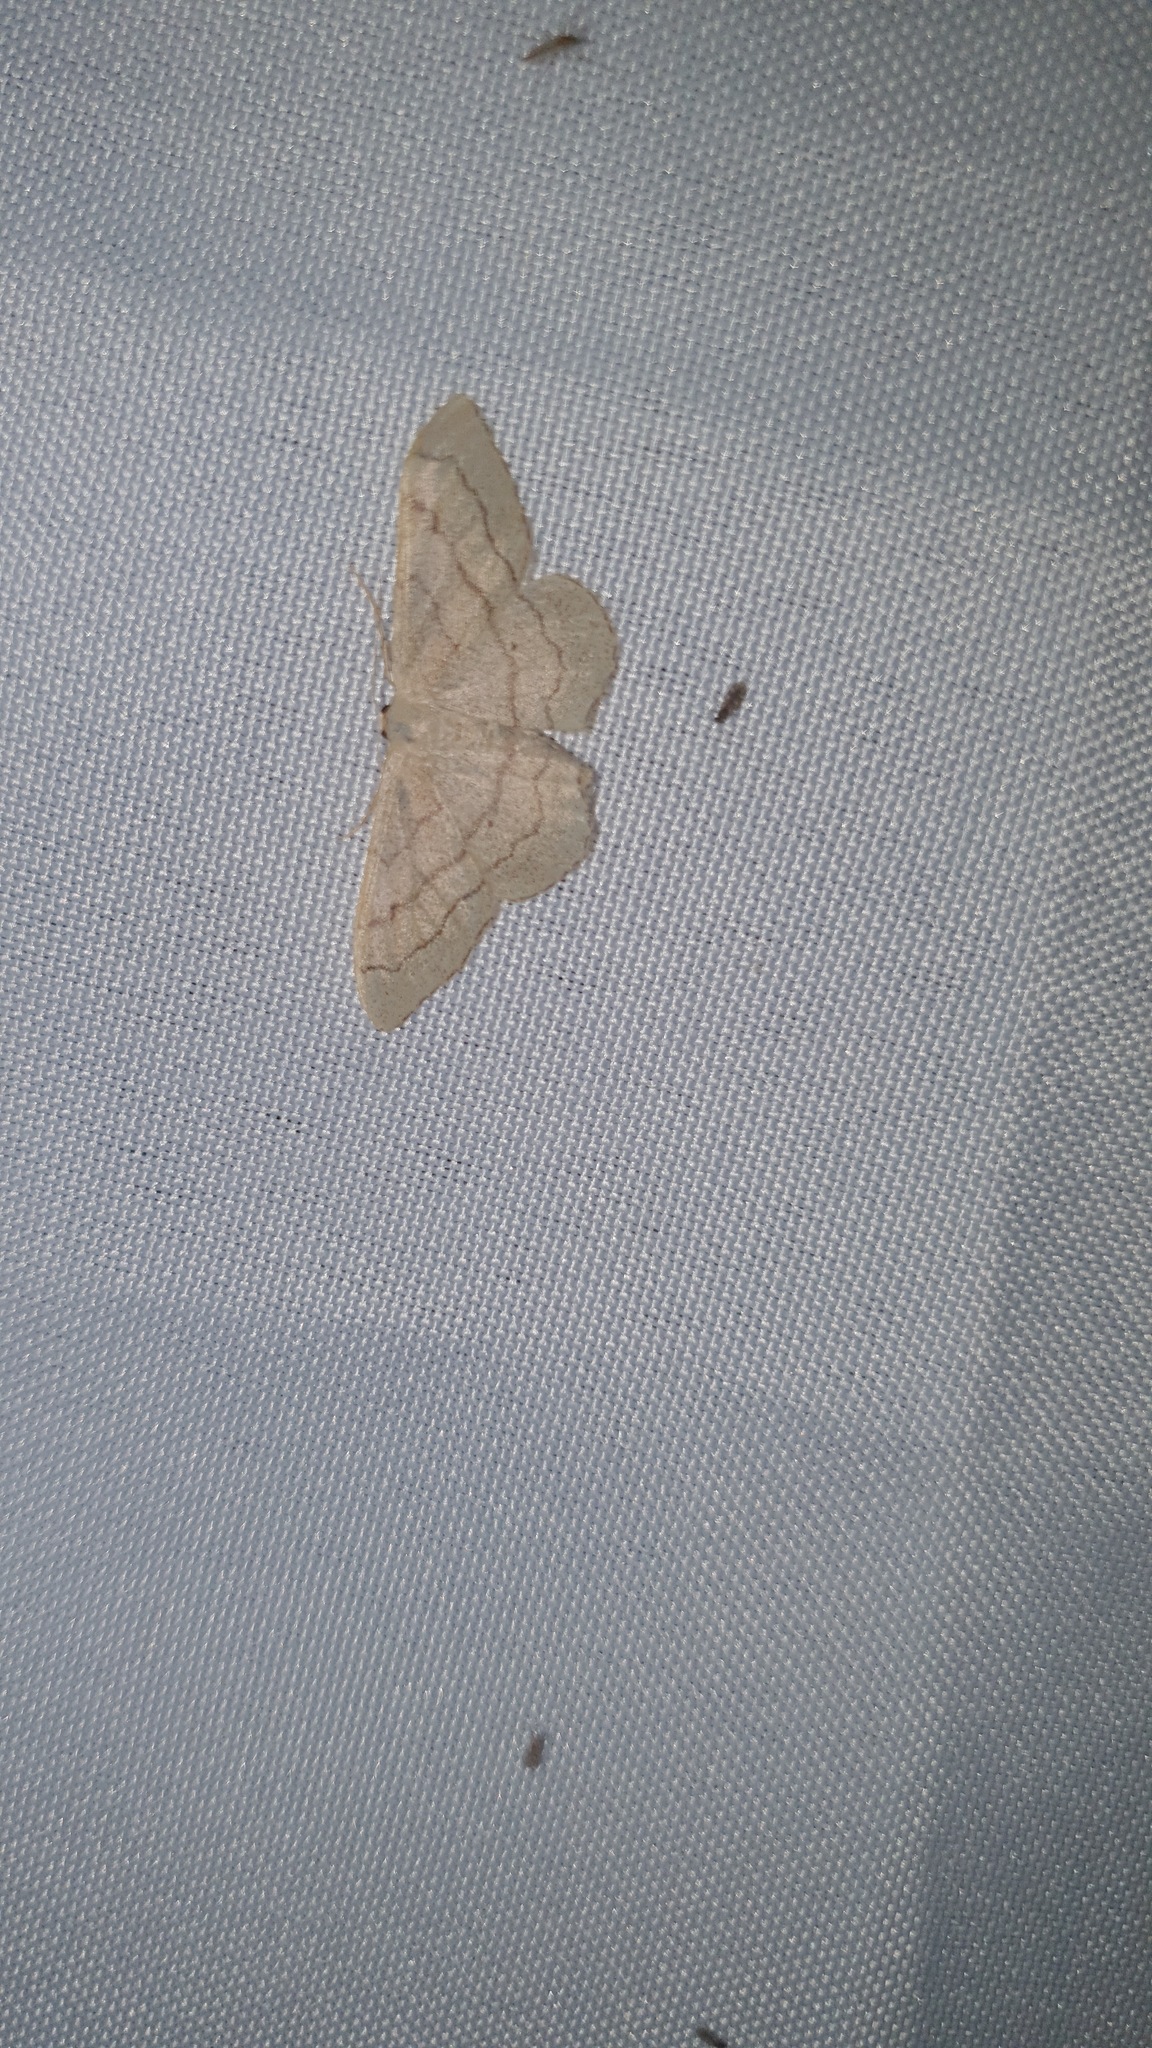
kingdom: Animalia
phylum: Arthropoda
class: Insecta
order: Lepidoptera
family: Geometridae
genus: Idaea
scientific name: Idaea aversata
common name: Riband wave
